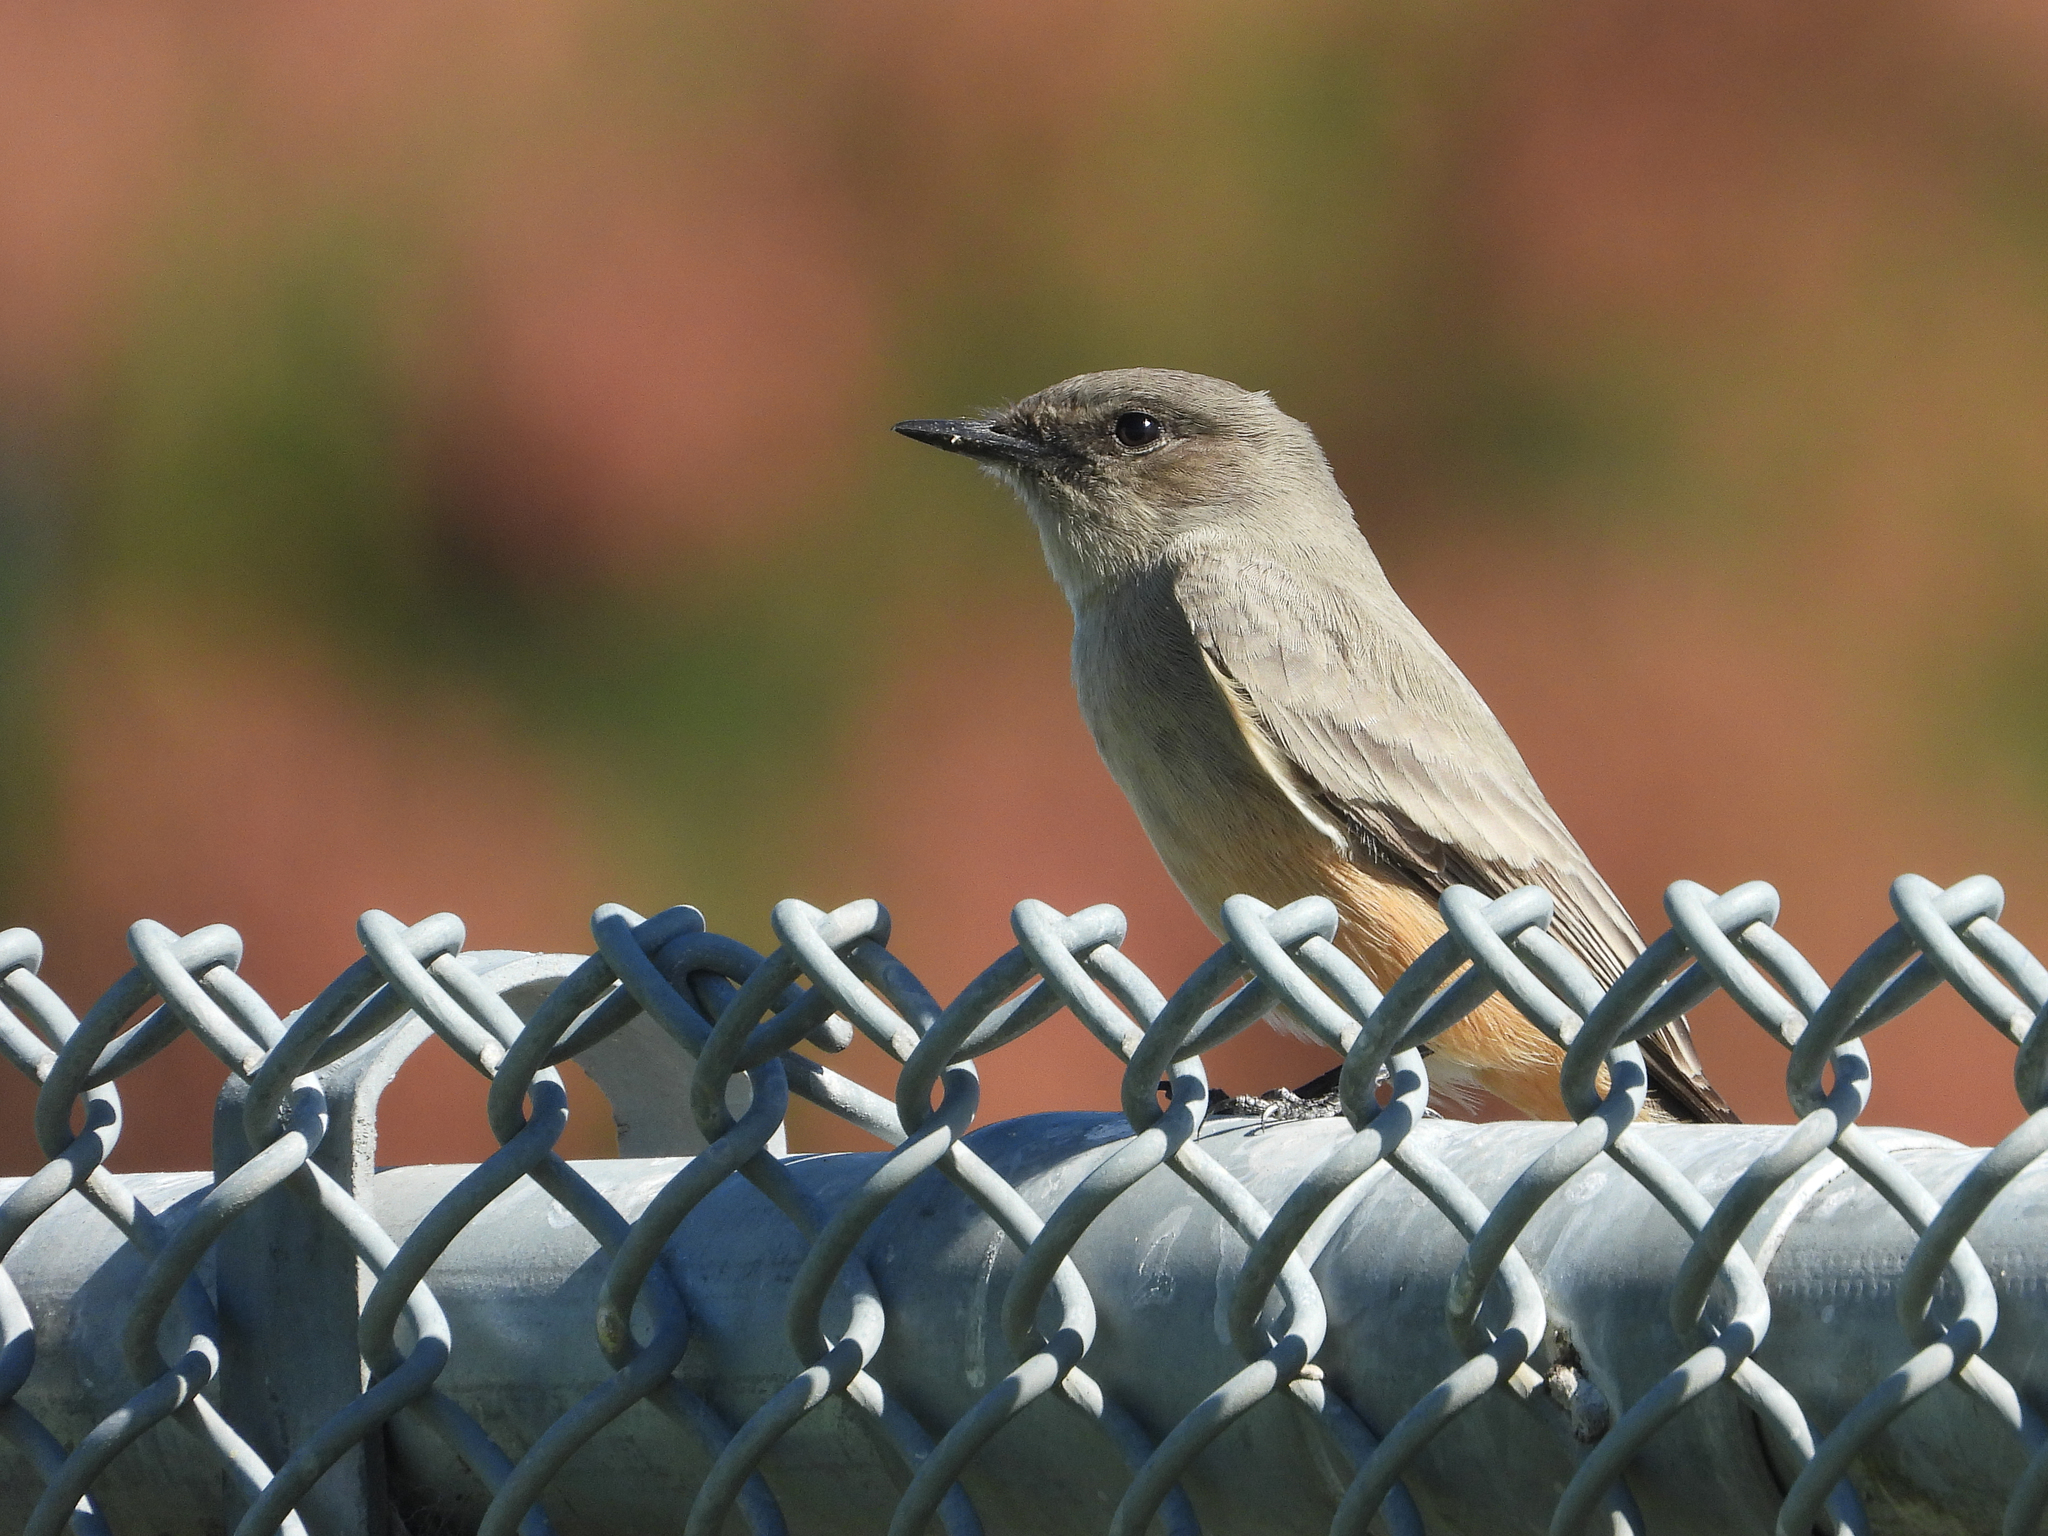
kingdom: Animalia
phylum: Chordata
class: Aves
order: Passeriformes
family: Tyrannidae
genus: Sayornis
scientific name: Sayornis saya
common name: Say's phoebe
